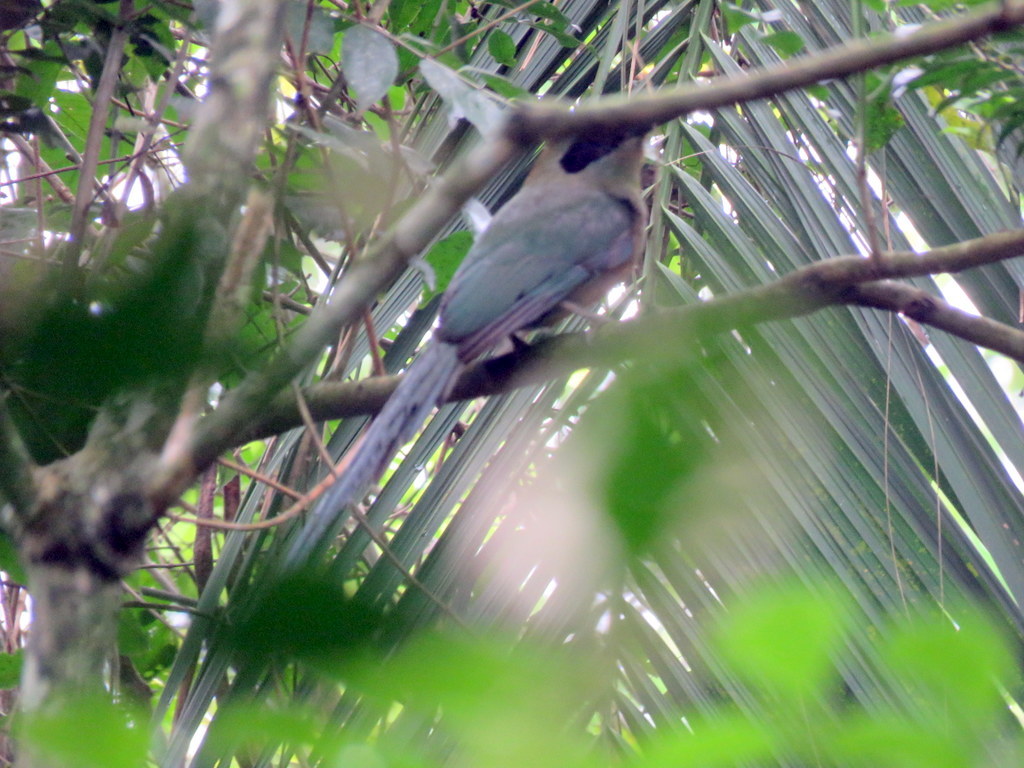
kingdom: Animalia
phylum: Chordata
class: Aves
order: Coraciiformes
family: Momotidae
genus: Baryphthengus
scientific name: Baryphthengus ruficapillus
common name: Rufous-capped motmot
